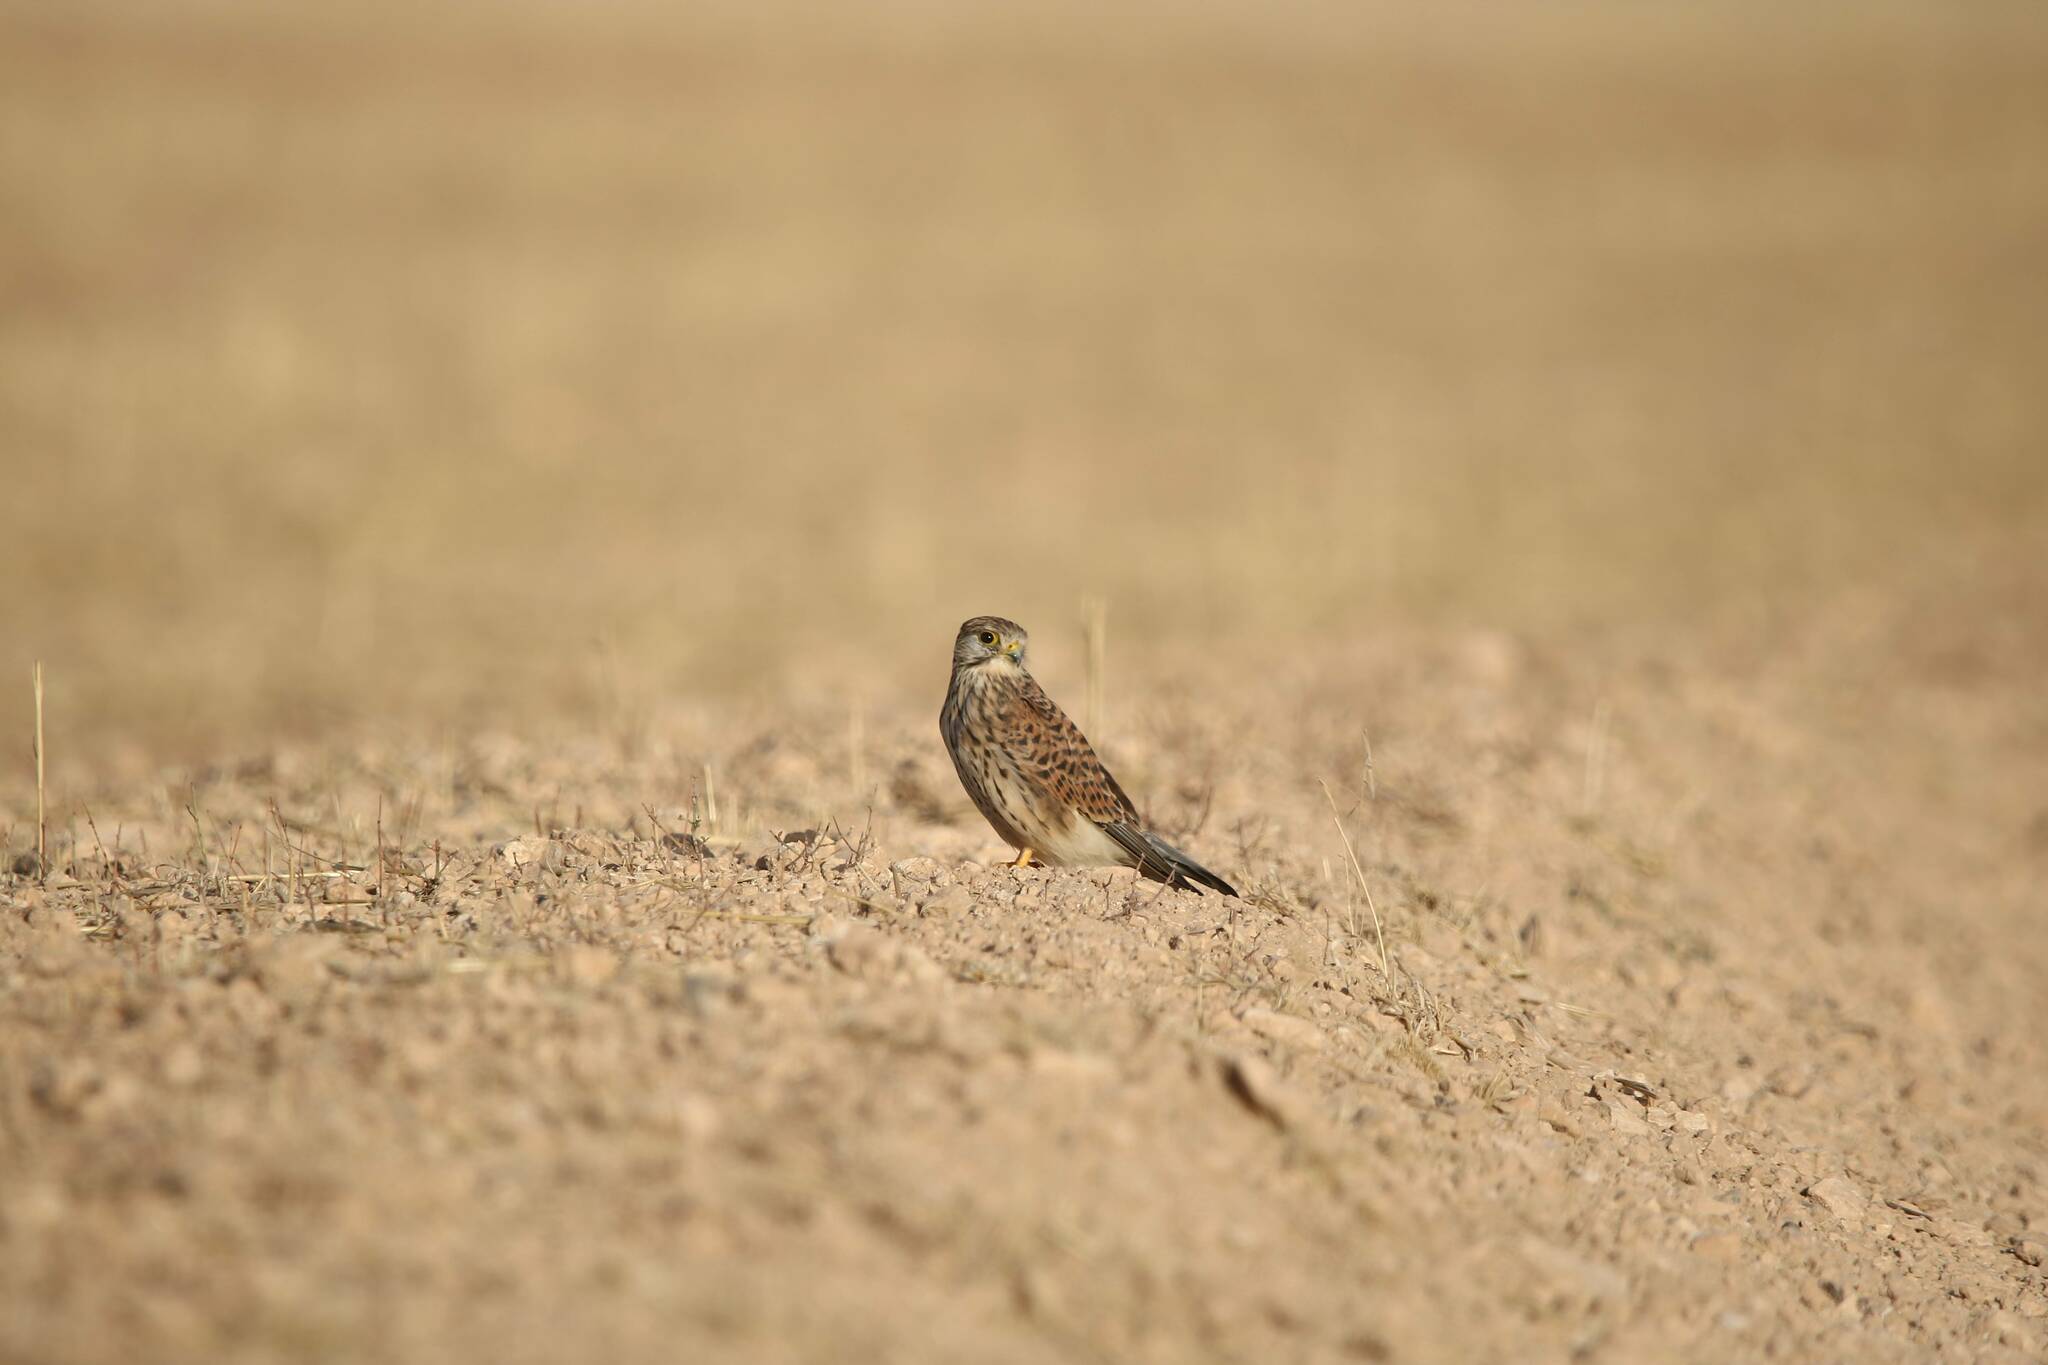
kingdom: Animalia
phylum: Chordata
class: Aves
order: Falconiformes
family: Falconidae
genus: Falco
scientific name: Falco tinnunculus
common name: Common kestrel
